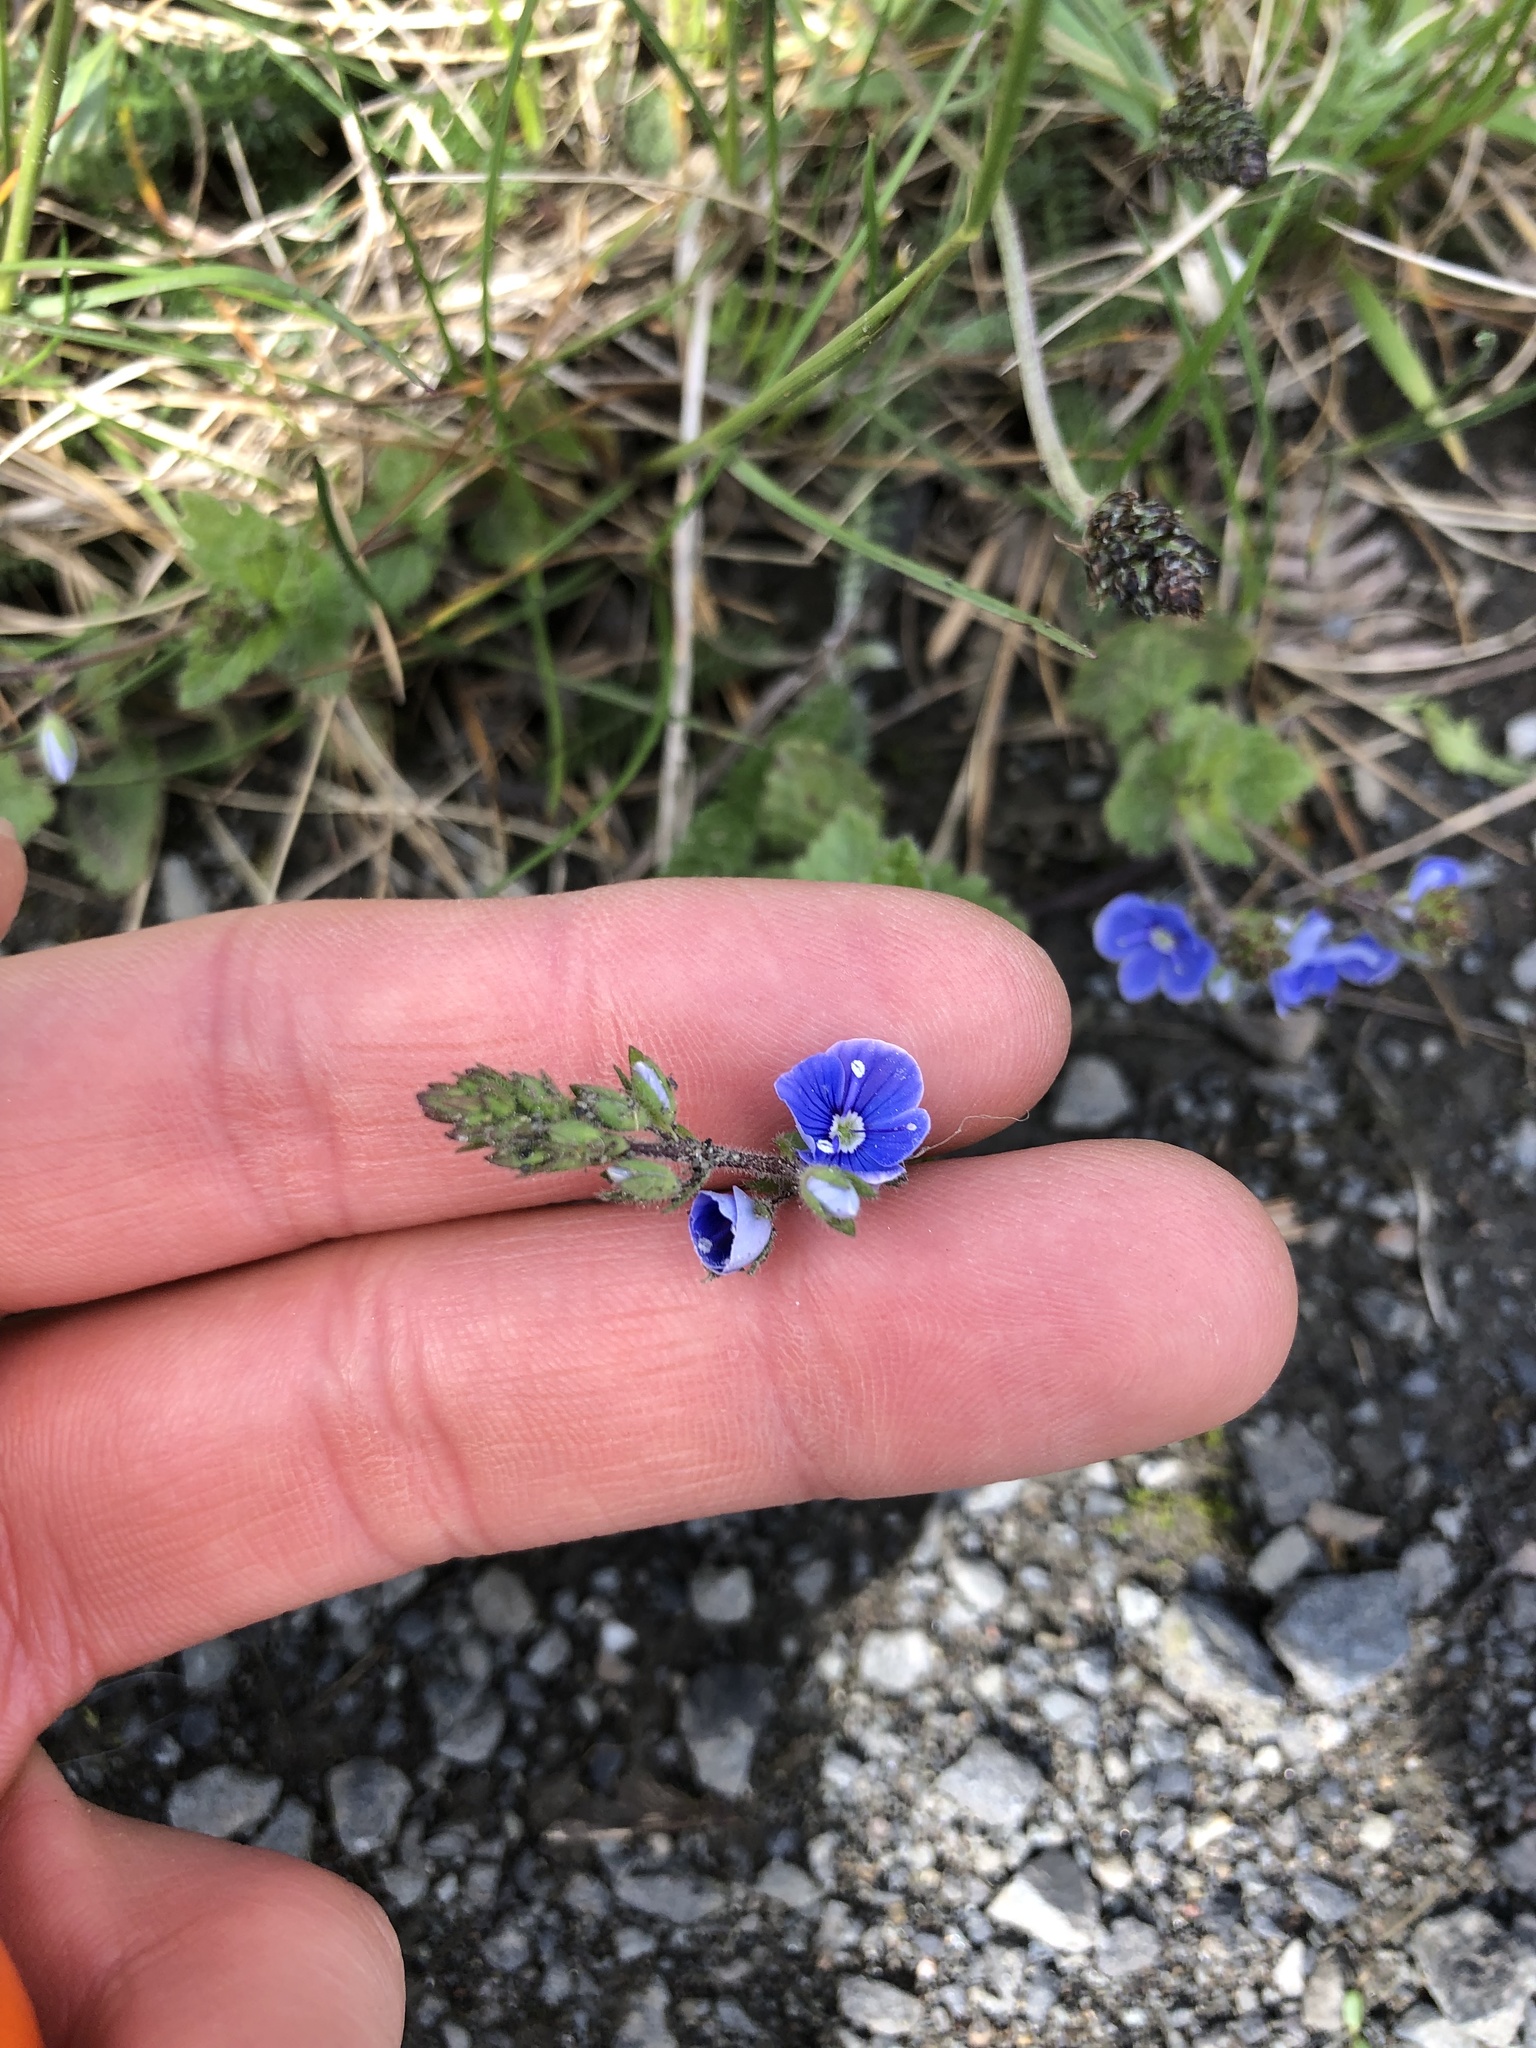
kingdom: Plantae
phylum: Tracheophyta
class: Magnoliopsida
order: Lamiales
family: Plantaginaceae
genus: Veronica
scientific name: Veronica chamaedrys
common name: Germander speedwell
